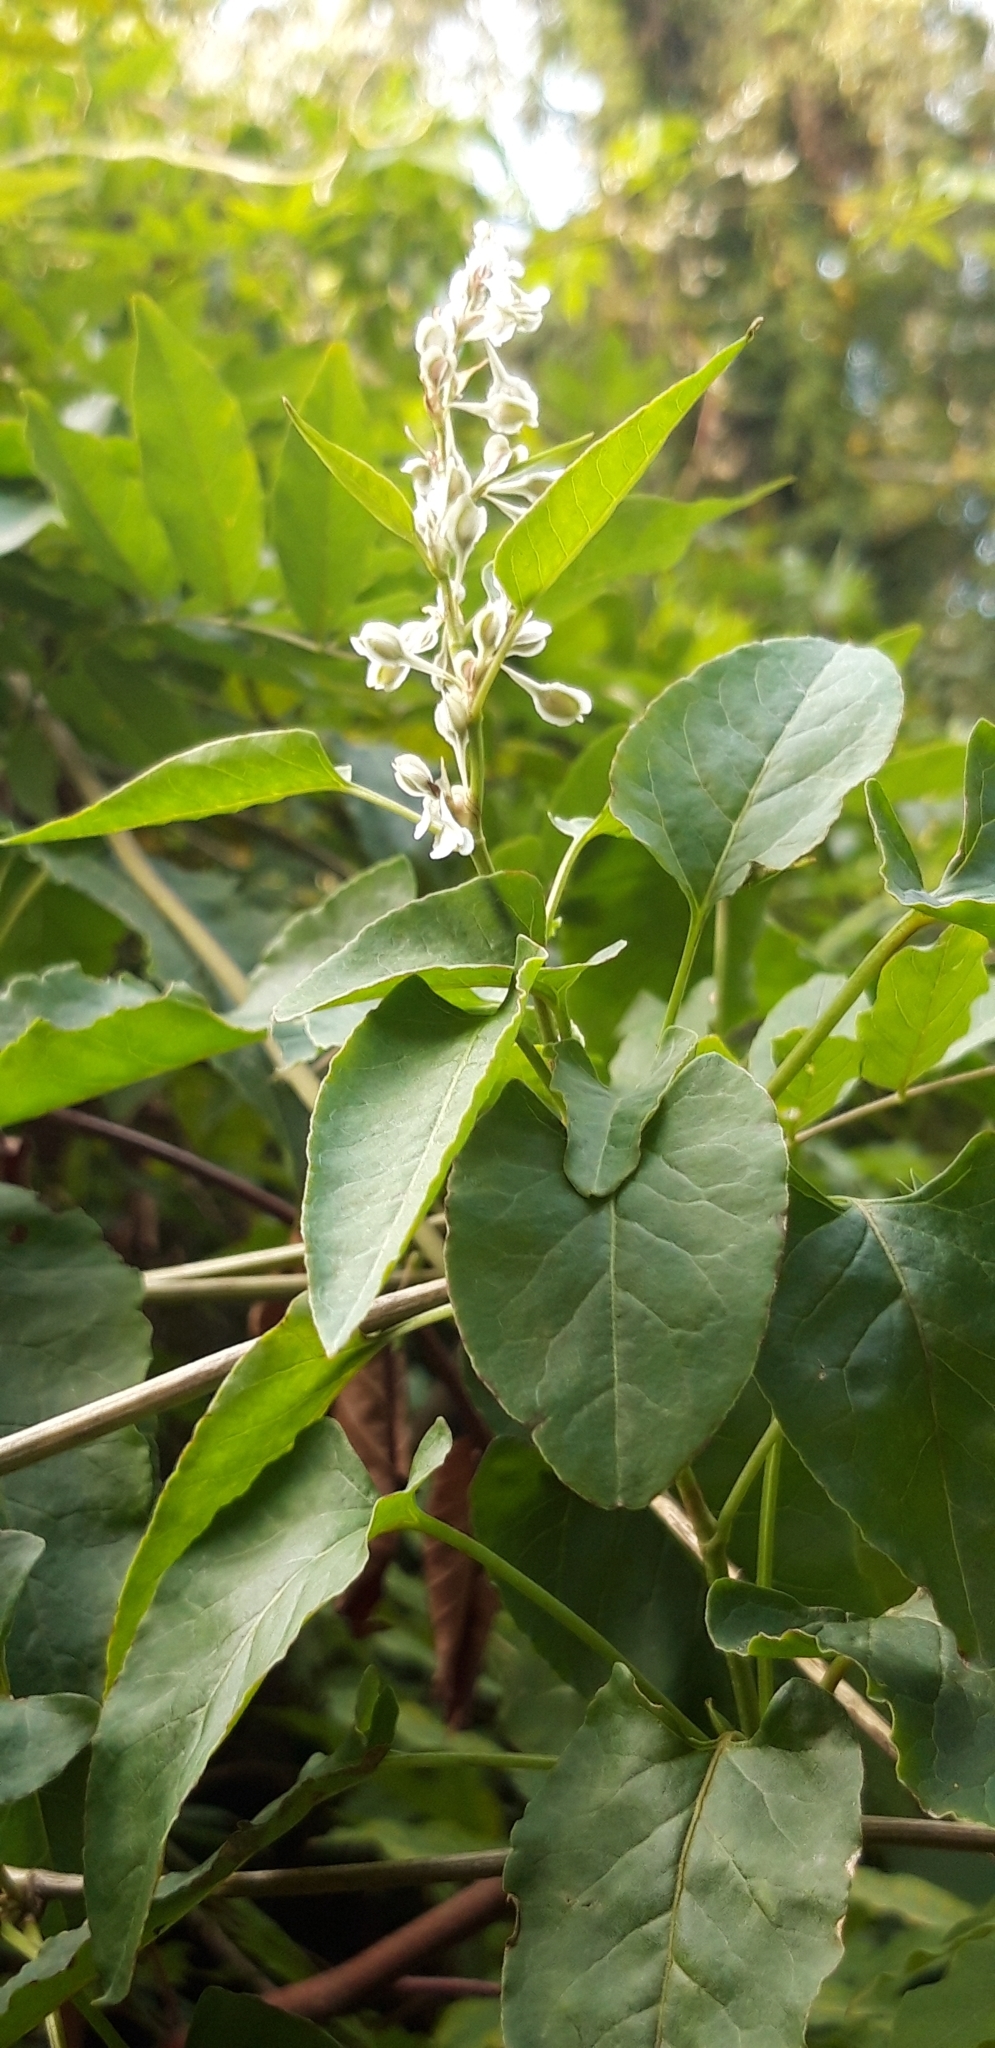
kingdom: Plantae
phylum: Tracheophyta
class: Magnoliopsida
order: Caryophyllales
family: Polygonaceae
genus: Fallopia
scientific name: Fallopia baldschuanica
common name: Russian-vine
